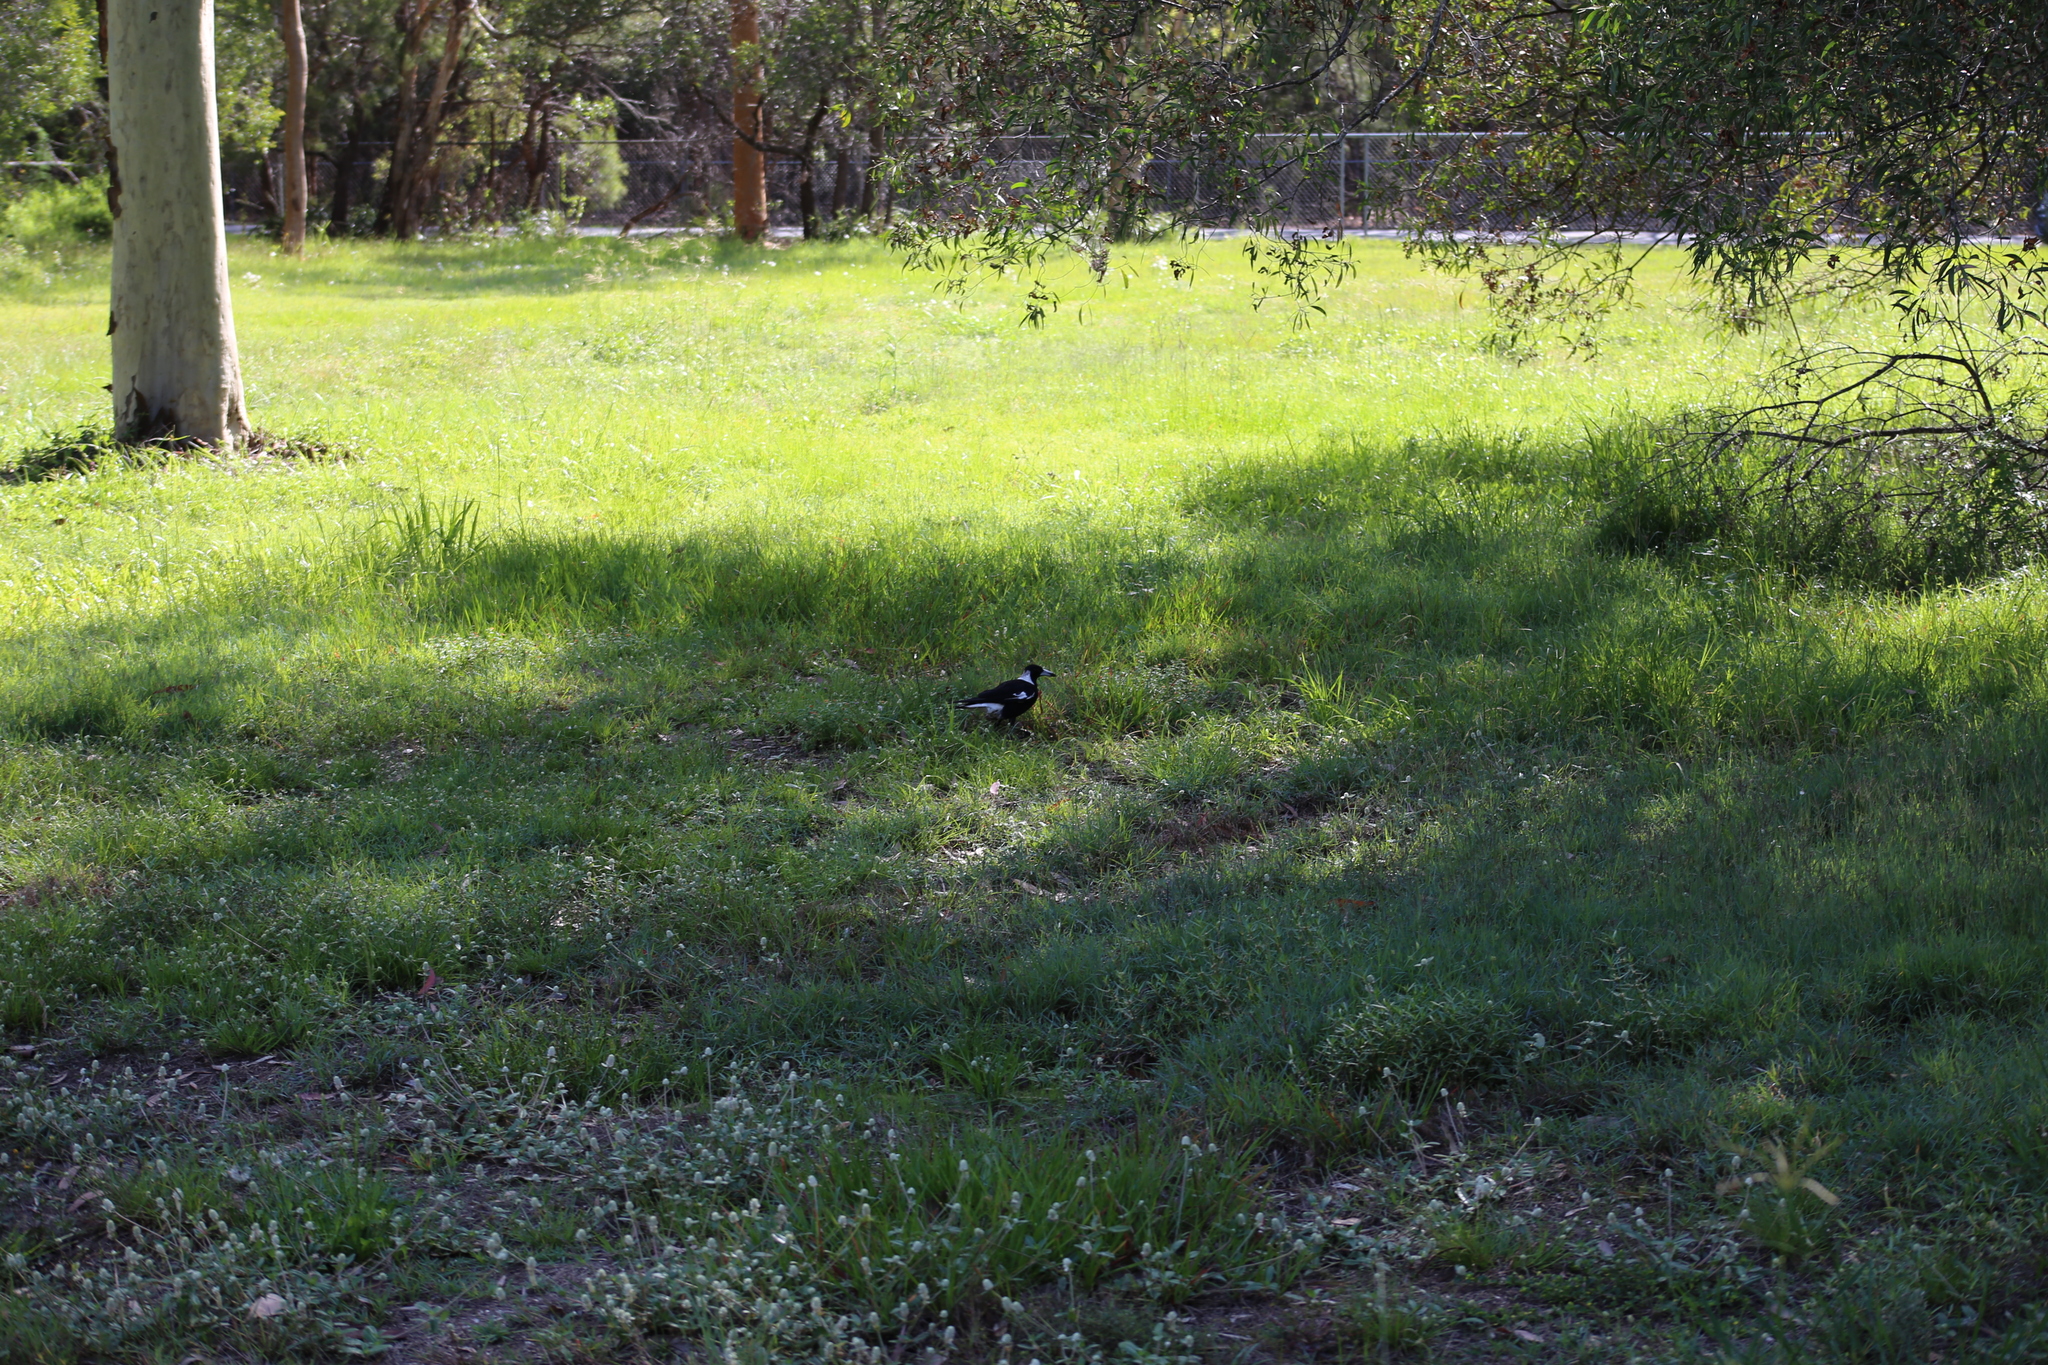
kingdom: Animalia
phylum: Chordata
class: Aves
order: Passeriformes
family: Cracticidae
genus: Gymnorhina
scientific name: Gymnorhina tibicen
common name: Australian magpie
